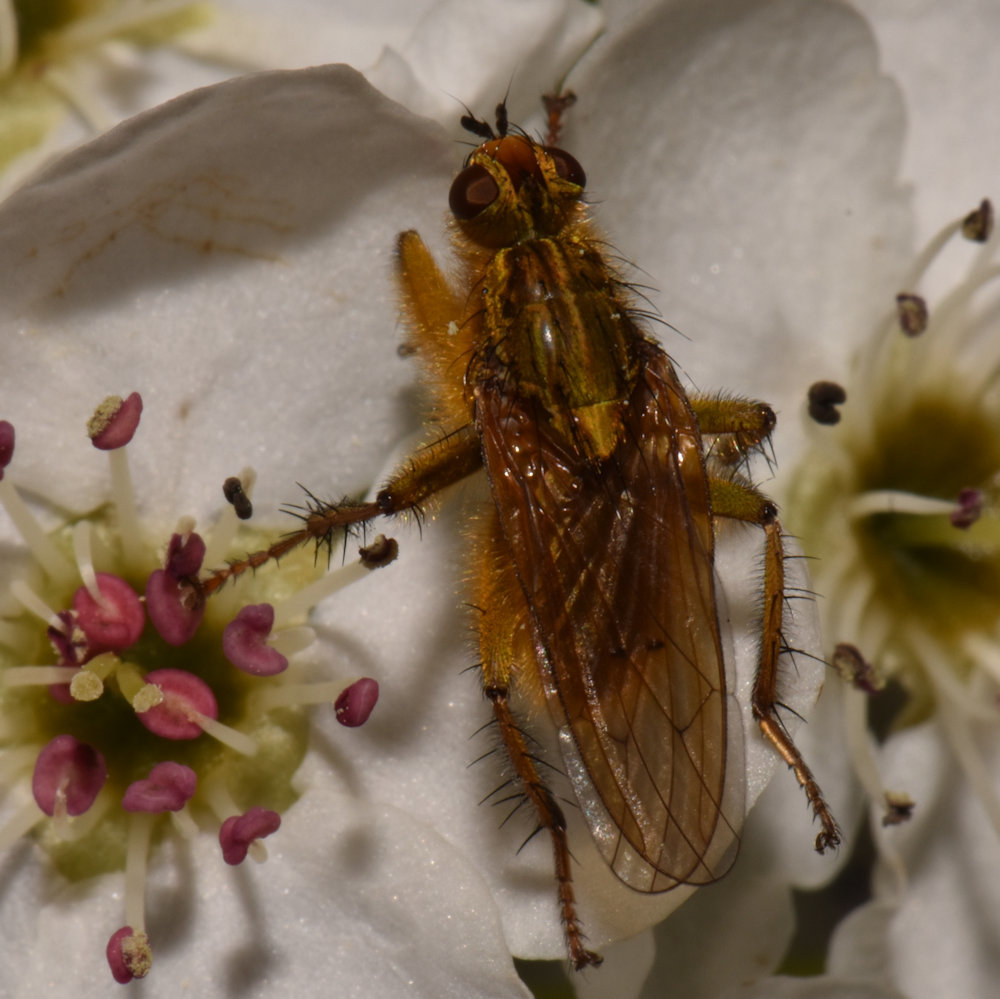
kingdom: Animalia
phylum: Arthropoda
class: Insecta
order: Diptera
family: Scathophagidae
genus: Scathophaga
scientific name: Scathophaga stercoraria
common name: Yellow dung fly
